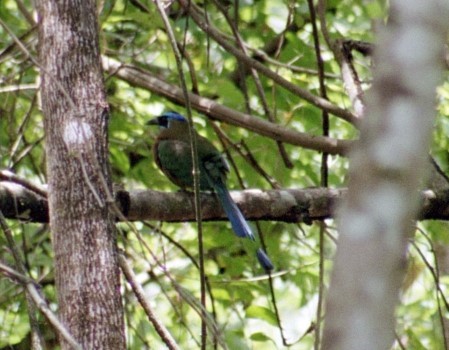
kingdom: Animalia
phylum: Chordata
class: Aves
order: Coraciiformes
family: Momotidae
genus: Momotus
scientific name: Momotus lessonii
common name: Lesson's motmot
